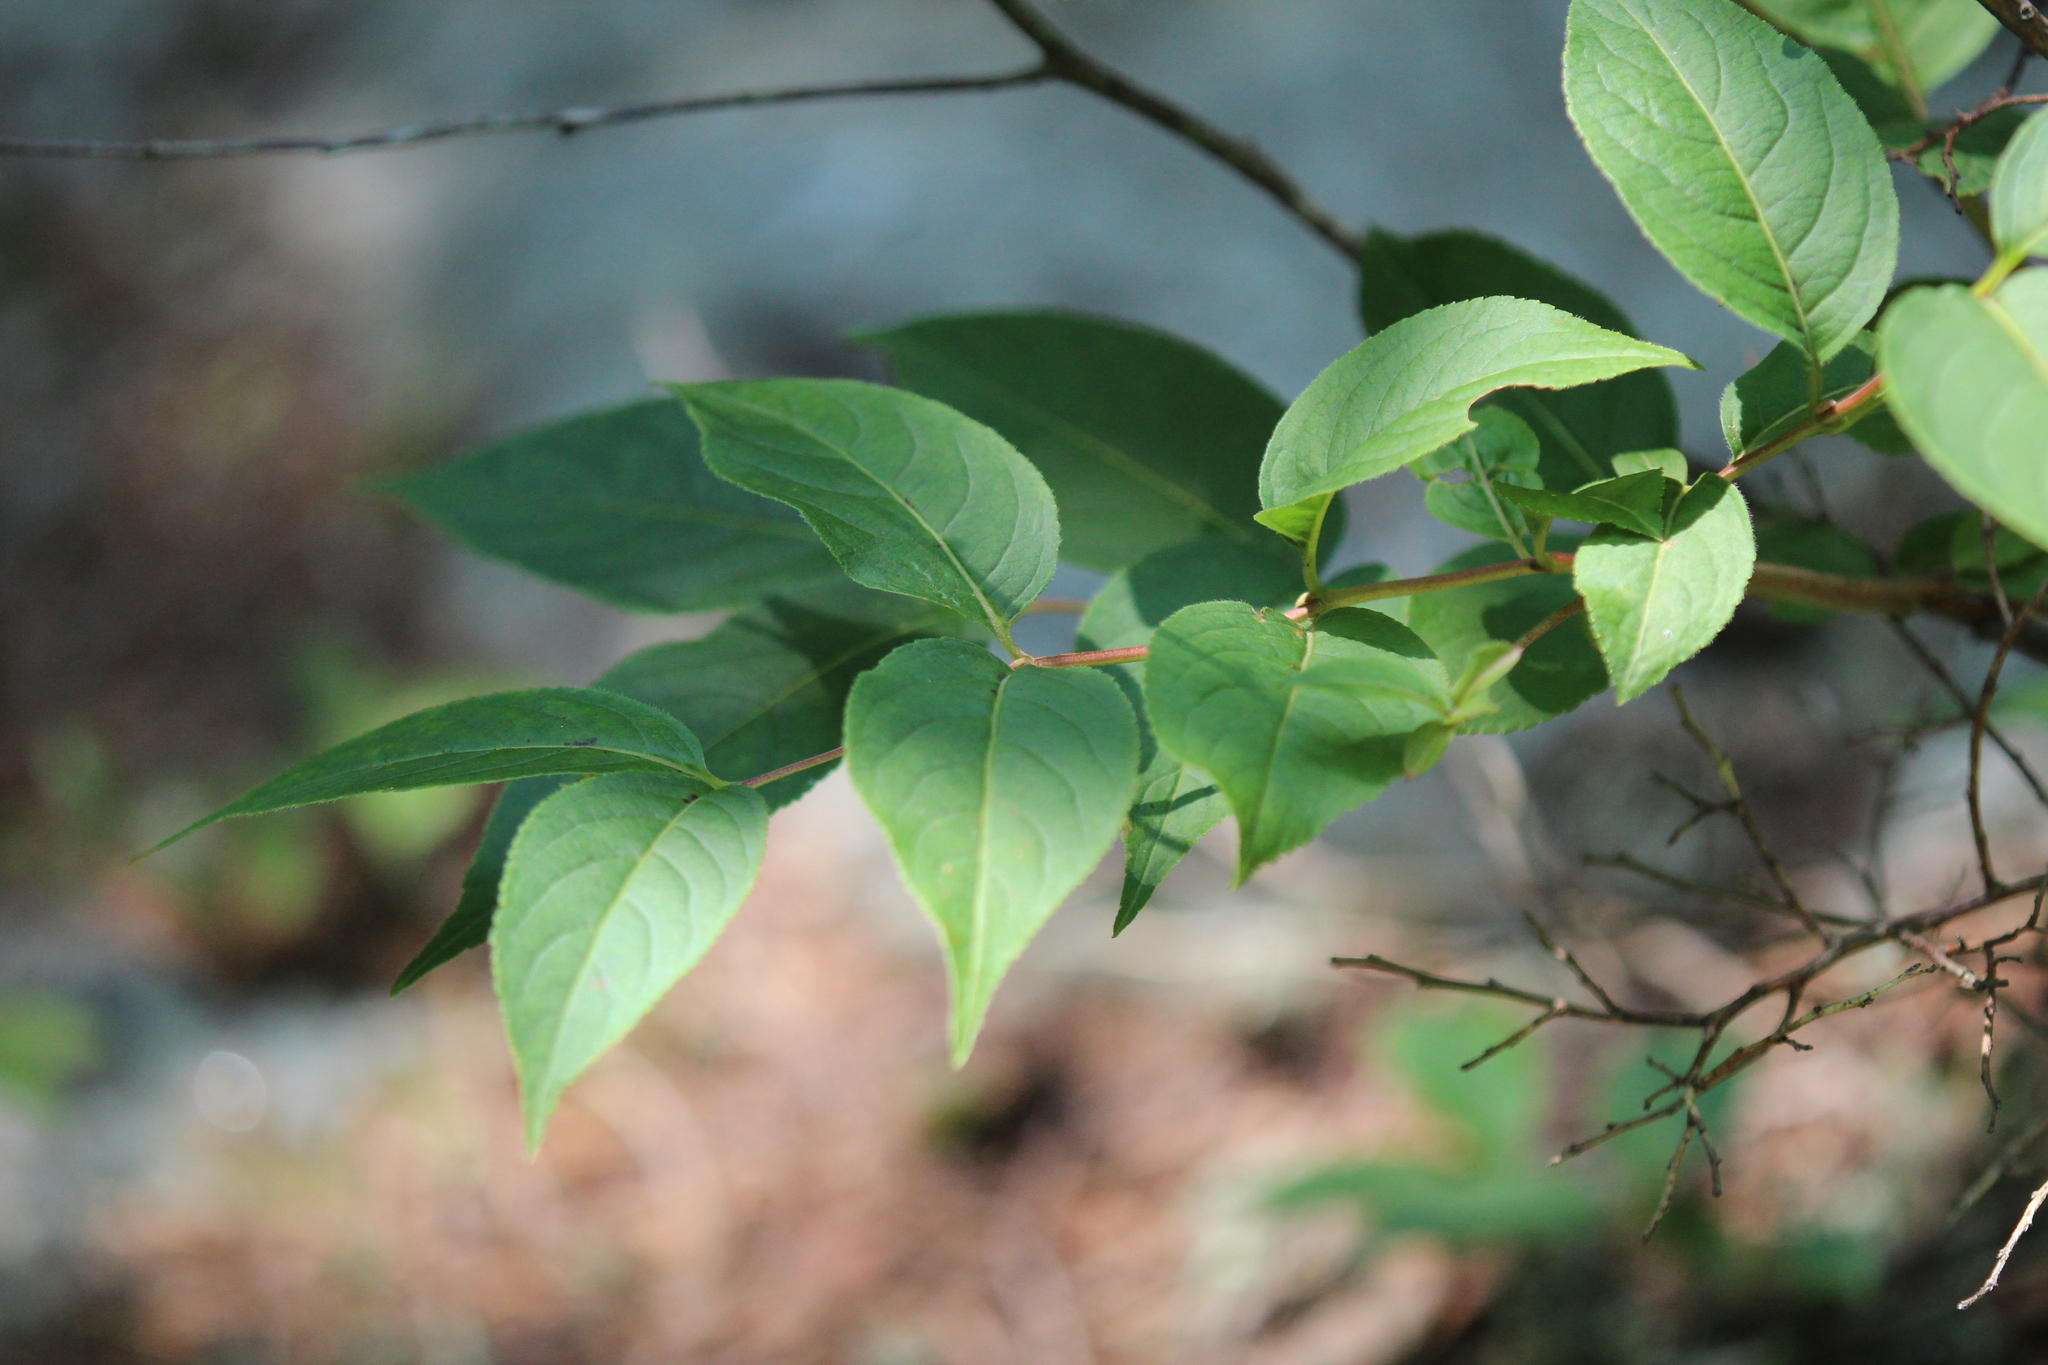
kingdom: Plantae
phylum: Tracheophyta
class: Magnoliopsida
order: Dipsacales
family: Caprifoliaceae
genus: Diervilla
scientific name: Diervilla lonicera
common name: Bush-honeysuckle
